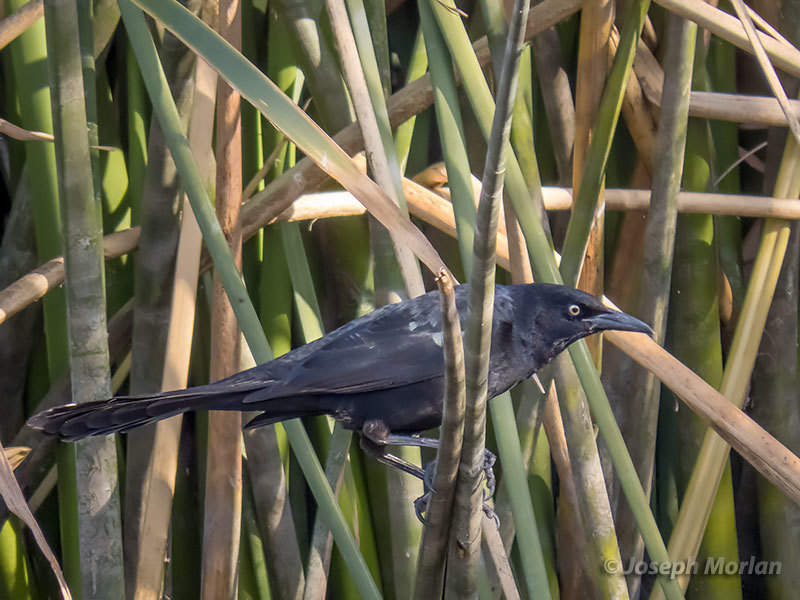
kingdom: Animalia
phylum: Chordata
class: Aves
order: Passeriformes
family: Icteridae
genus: Quiscalus
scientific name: Quiscalus mexicanus
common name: Great-tailed grackle
